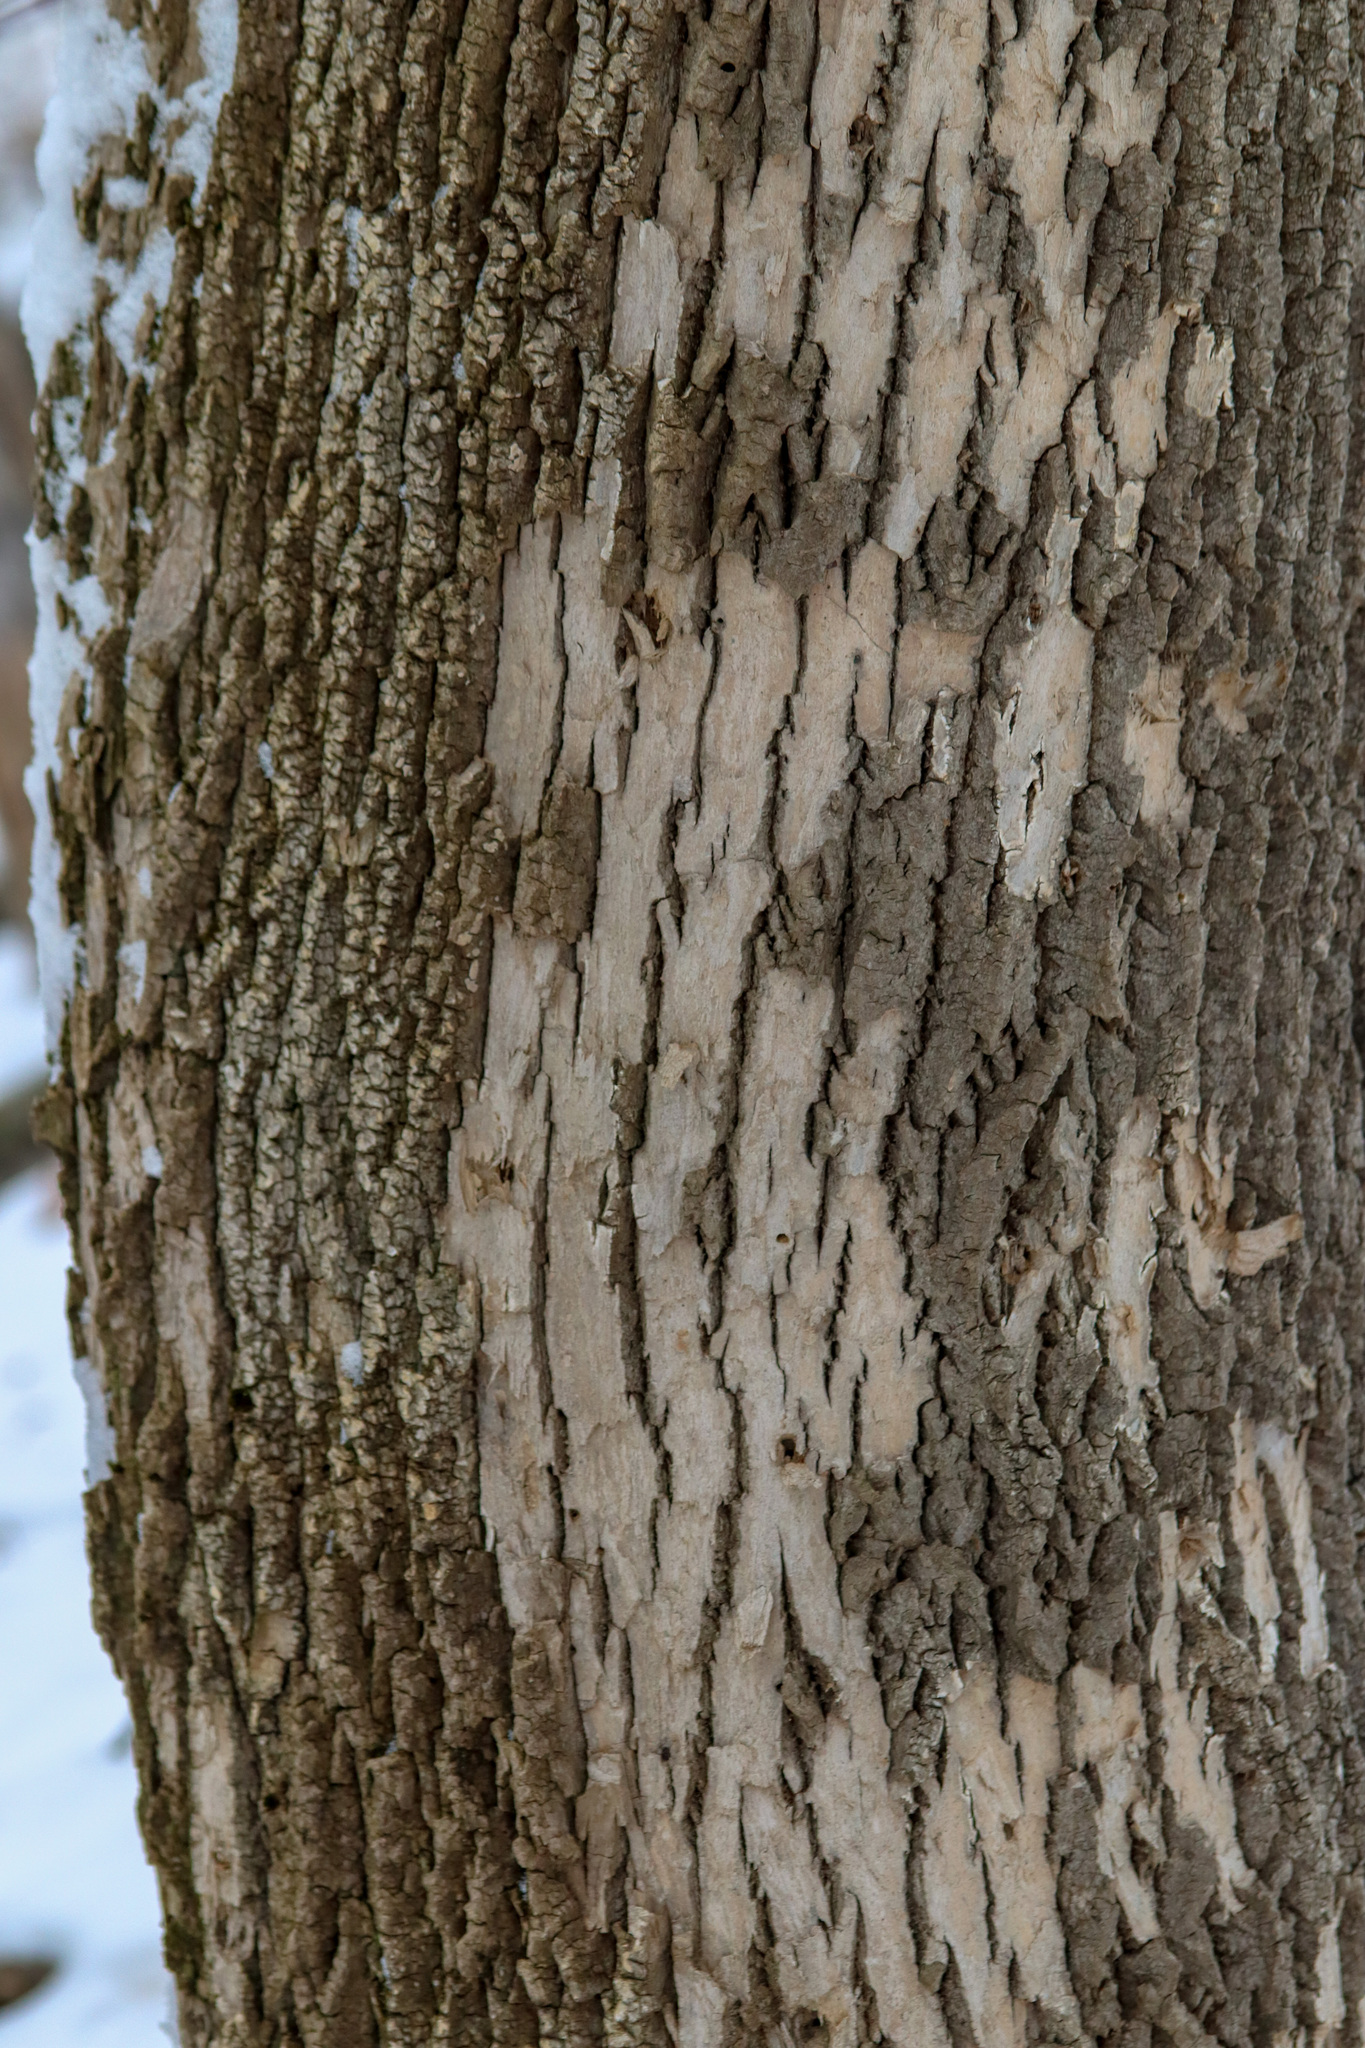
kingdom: Animalia
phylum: Arthropoda
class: Insecta
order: Coleoptera
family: Buprestidae
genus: Agrilus
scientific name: Agrilus planipennis
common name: Emerald ash borer
